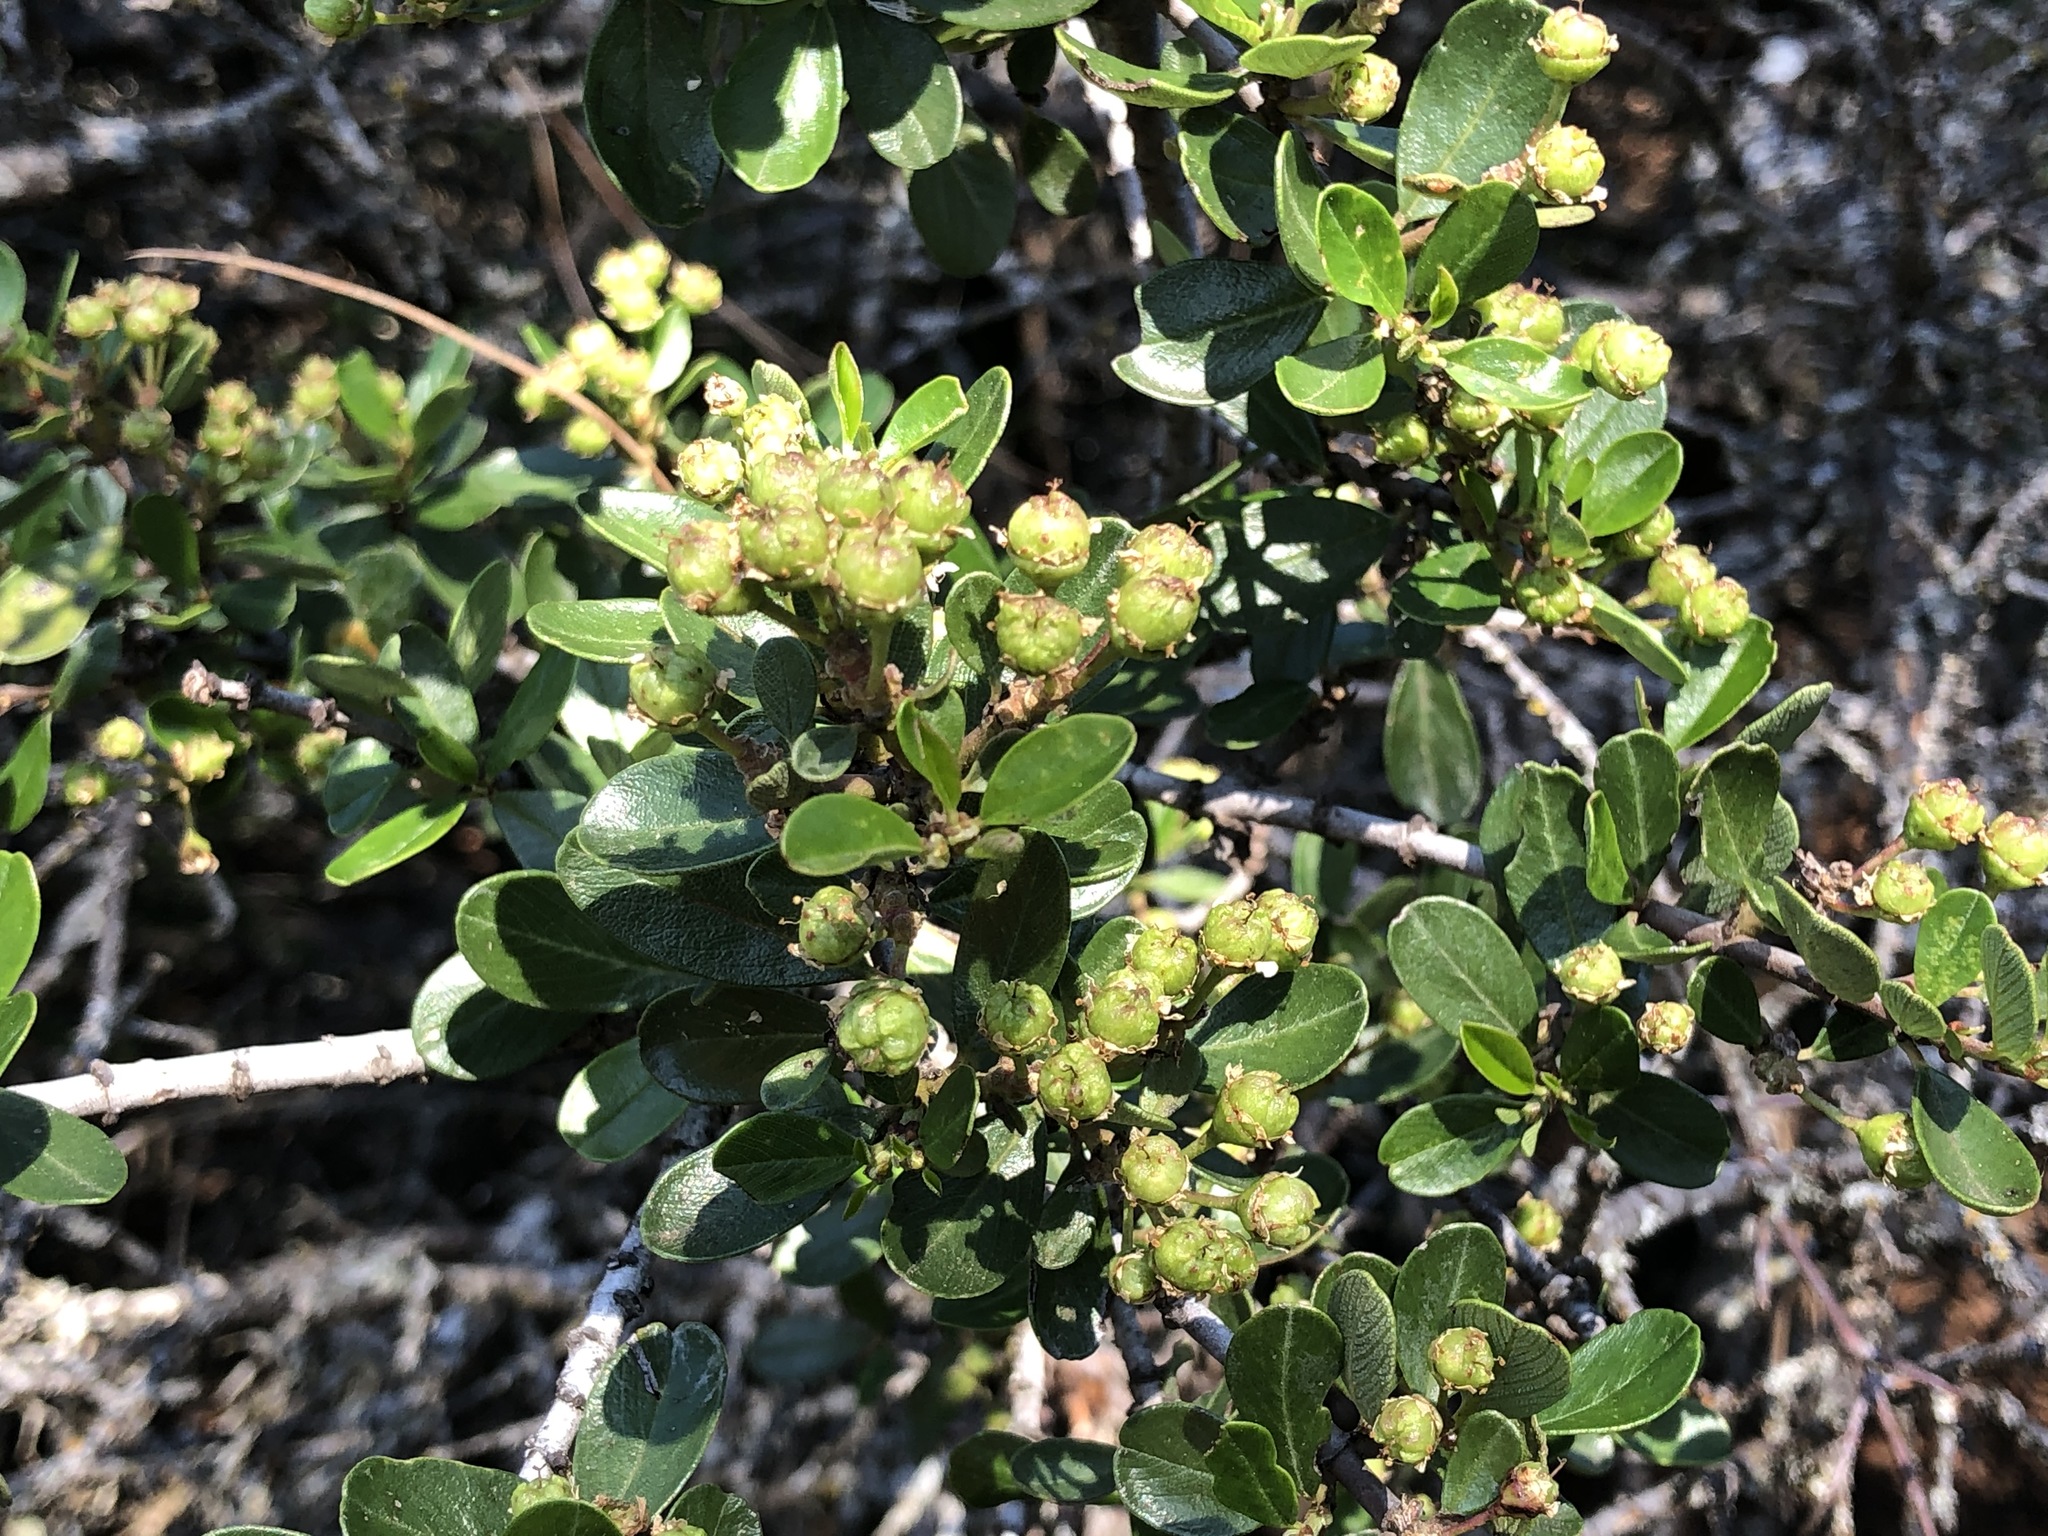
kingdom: Plantae
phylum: Tracheophyta
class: Magnoliopsida
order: Rosales
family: Rhamnaceae
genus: Ceanothus
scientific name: Ceanothus cuneatus
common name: Cuneate ceanothus
